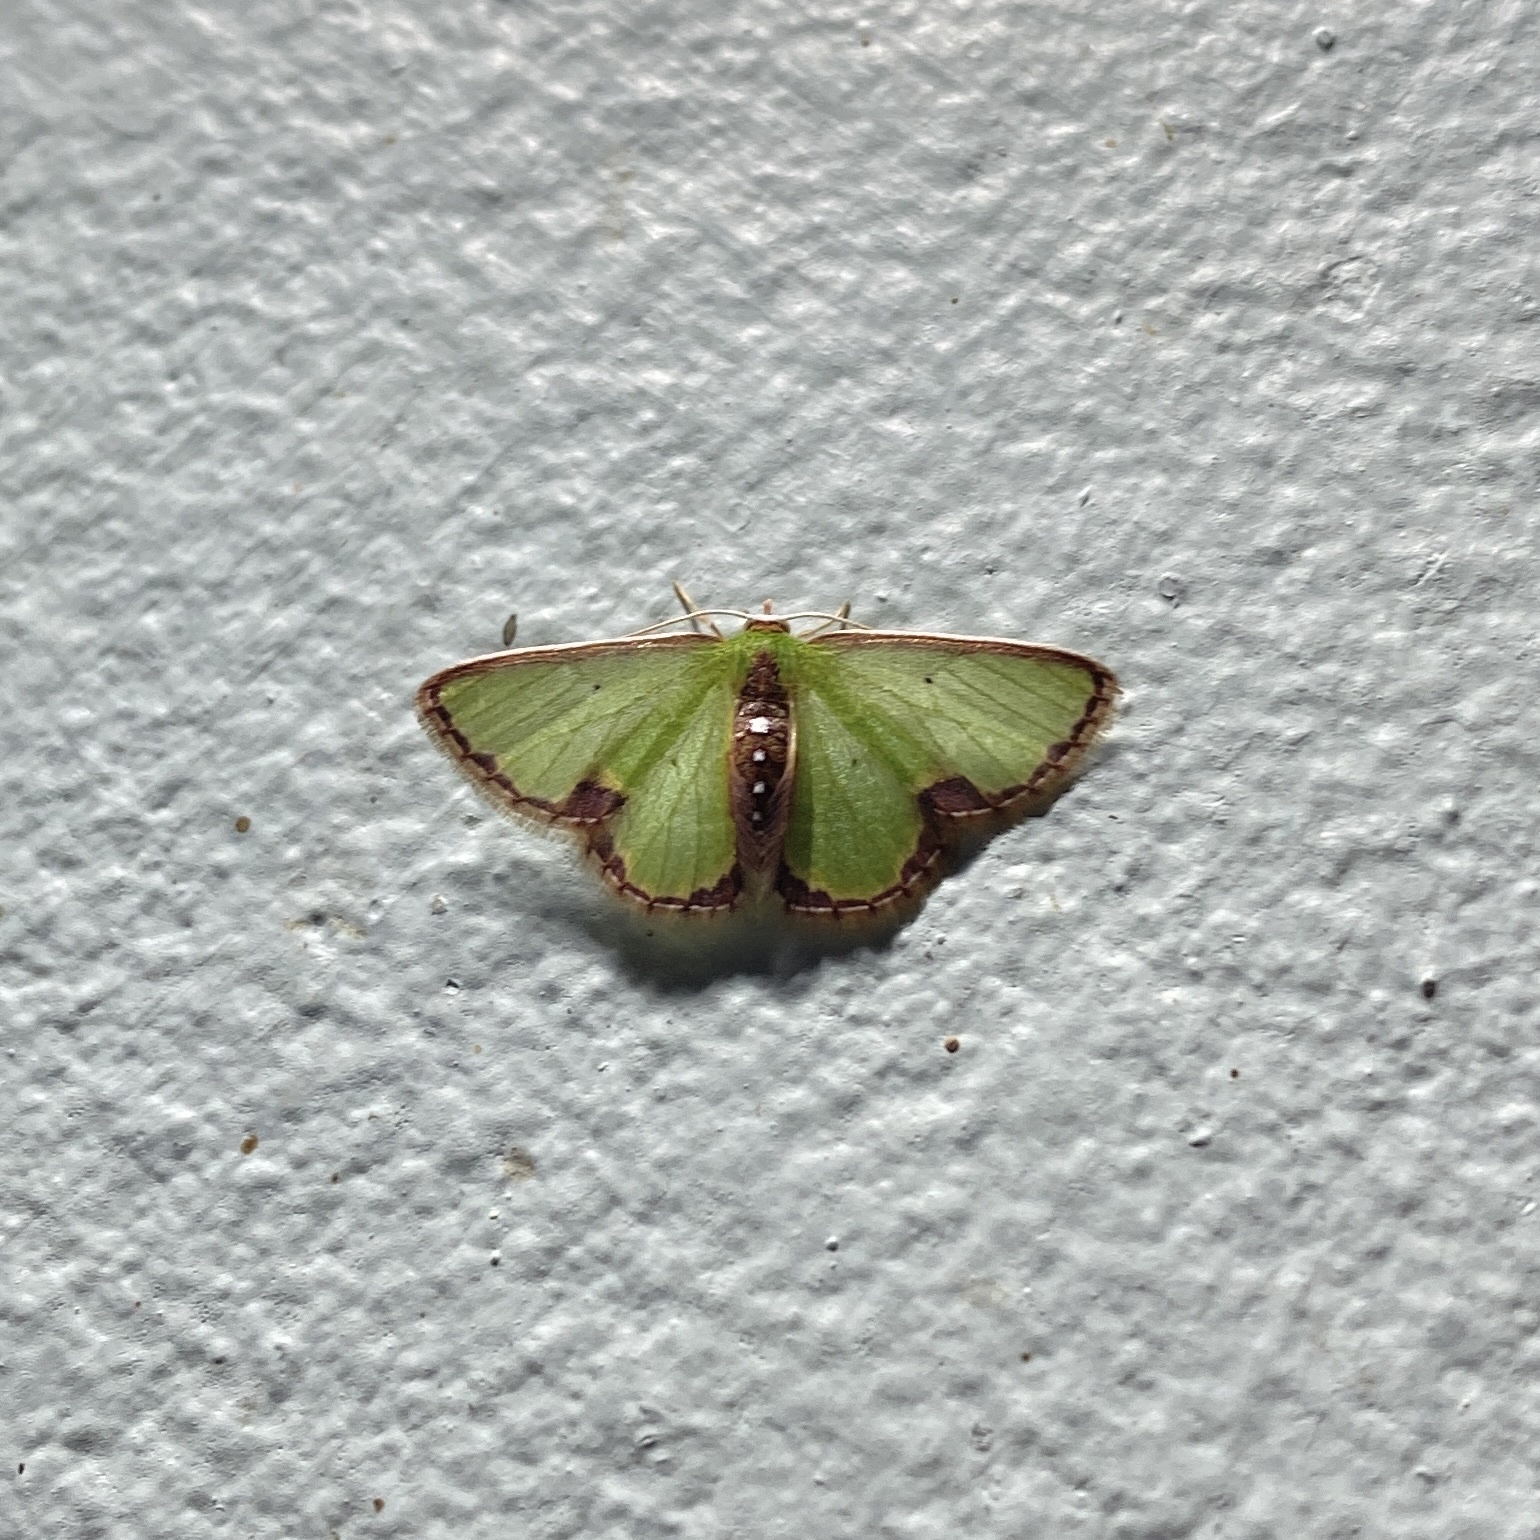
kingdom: Animalia
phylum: Arthropoda
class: Insecta
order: Lepidoptera
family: Geometridae
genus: Synchlora
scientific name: Synchlora expulsata
